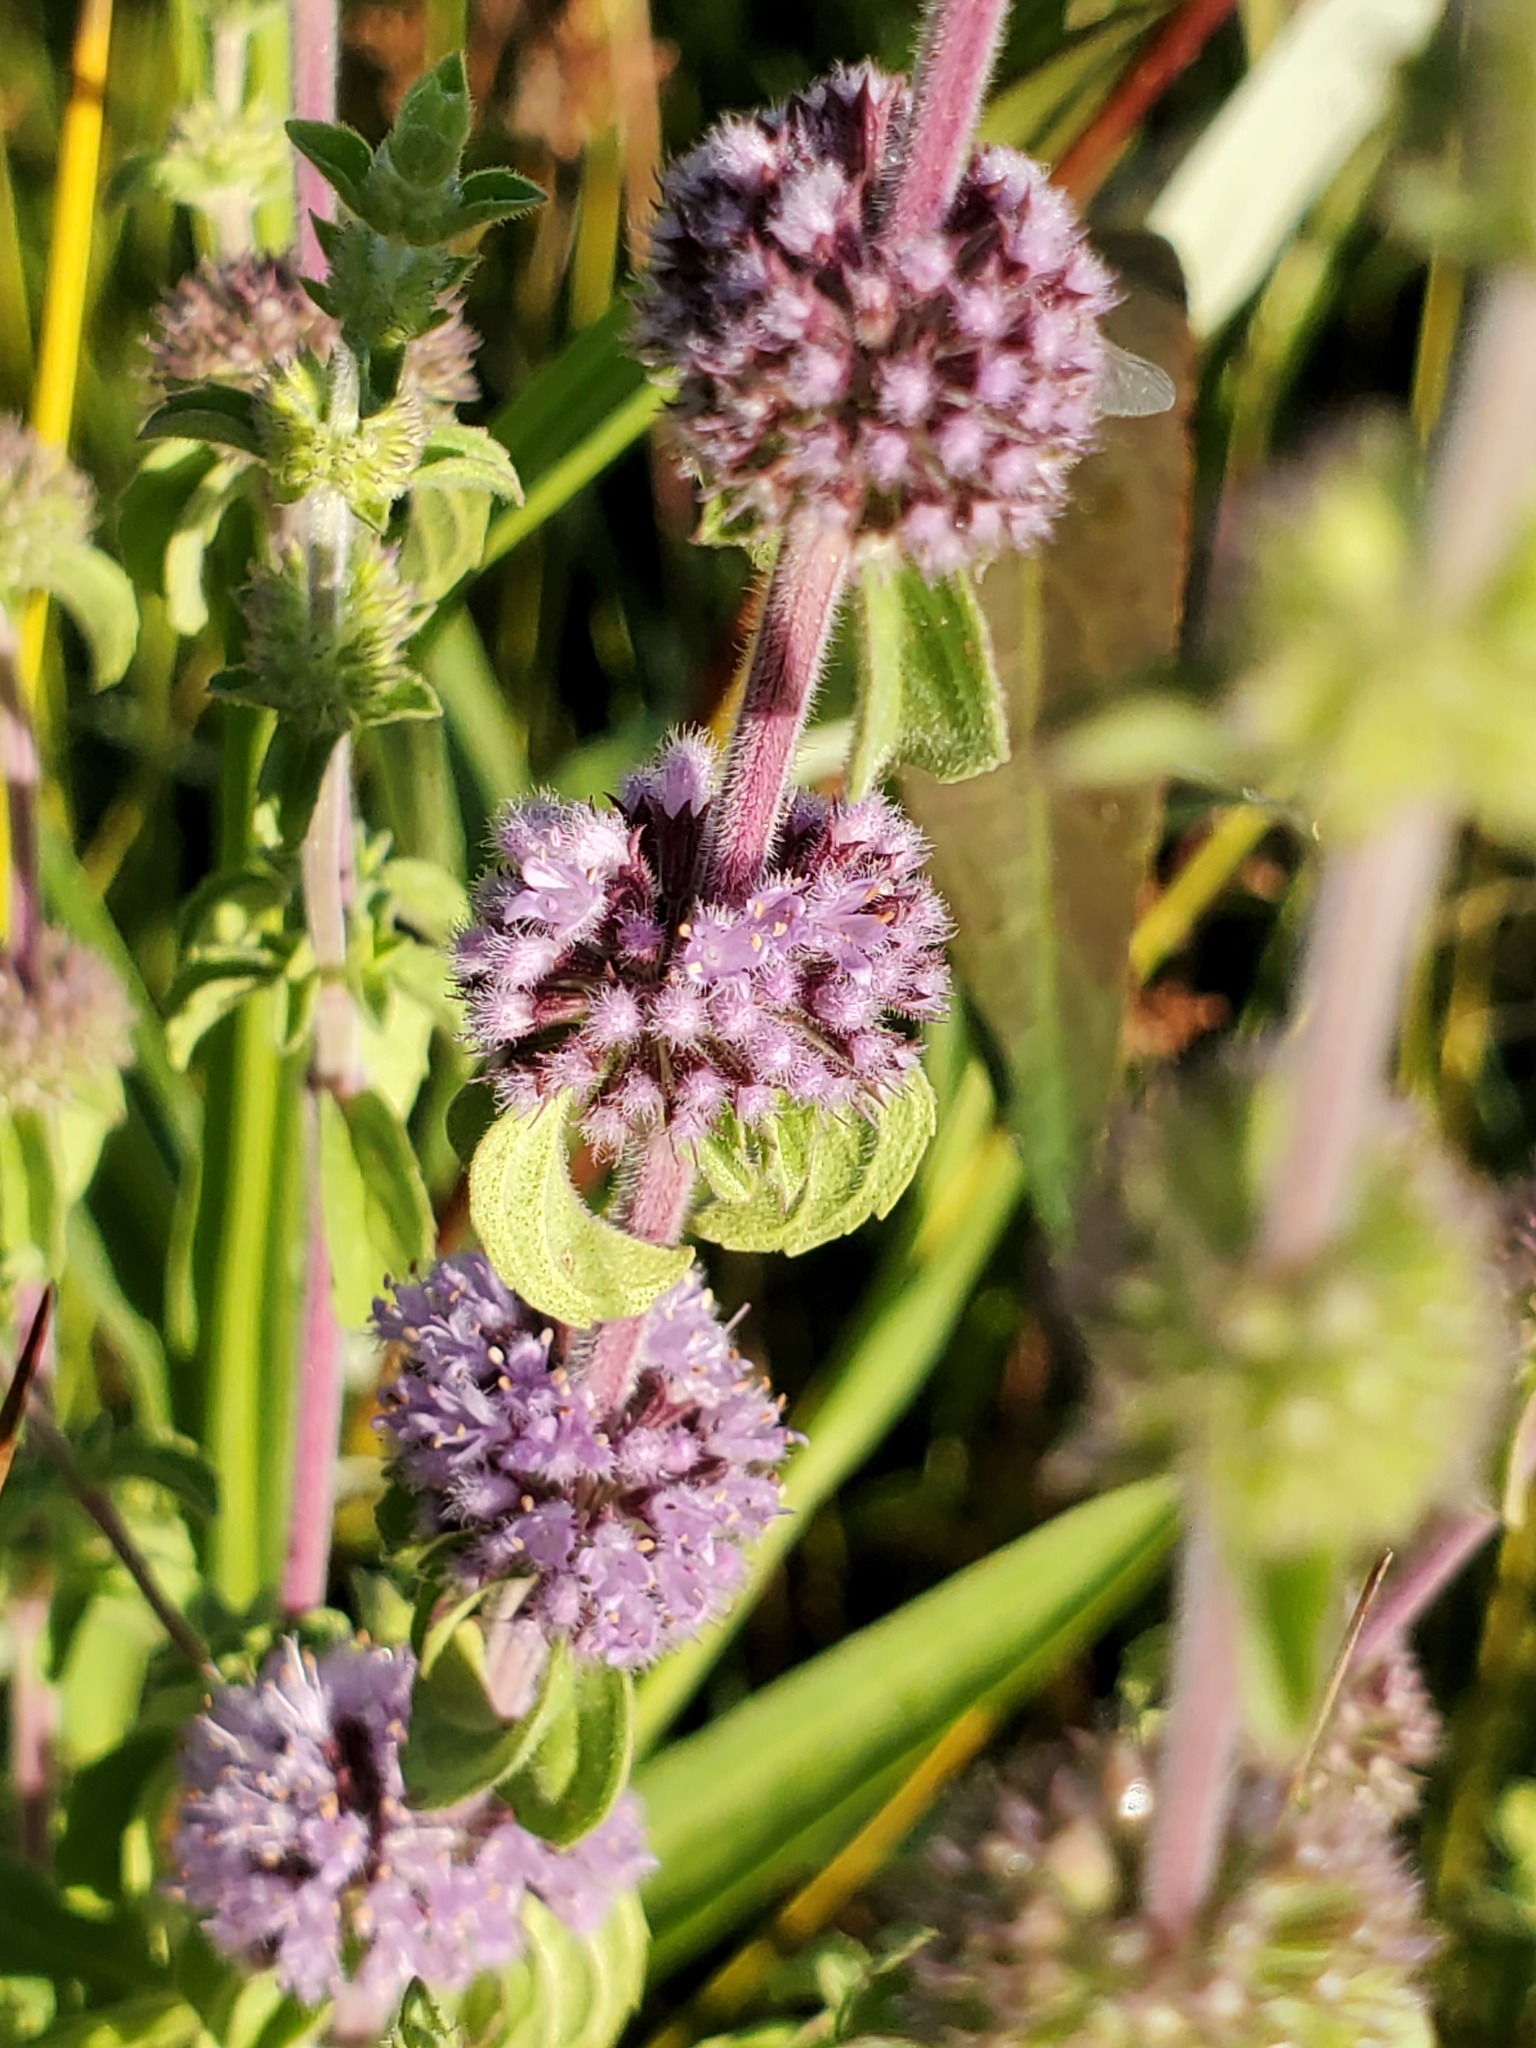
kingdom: Plantae
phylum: Tracheophyta
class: Magnoliopsida
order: Lamiales
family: Lamiaceae
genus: Mentha
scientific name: Mentha pulegium
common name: Pennyroyal
